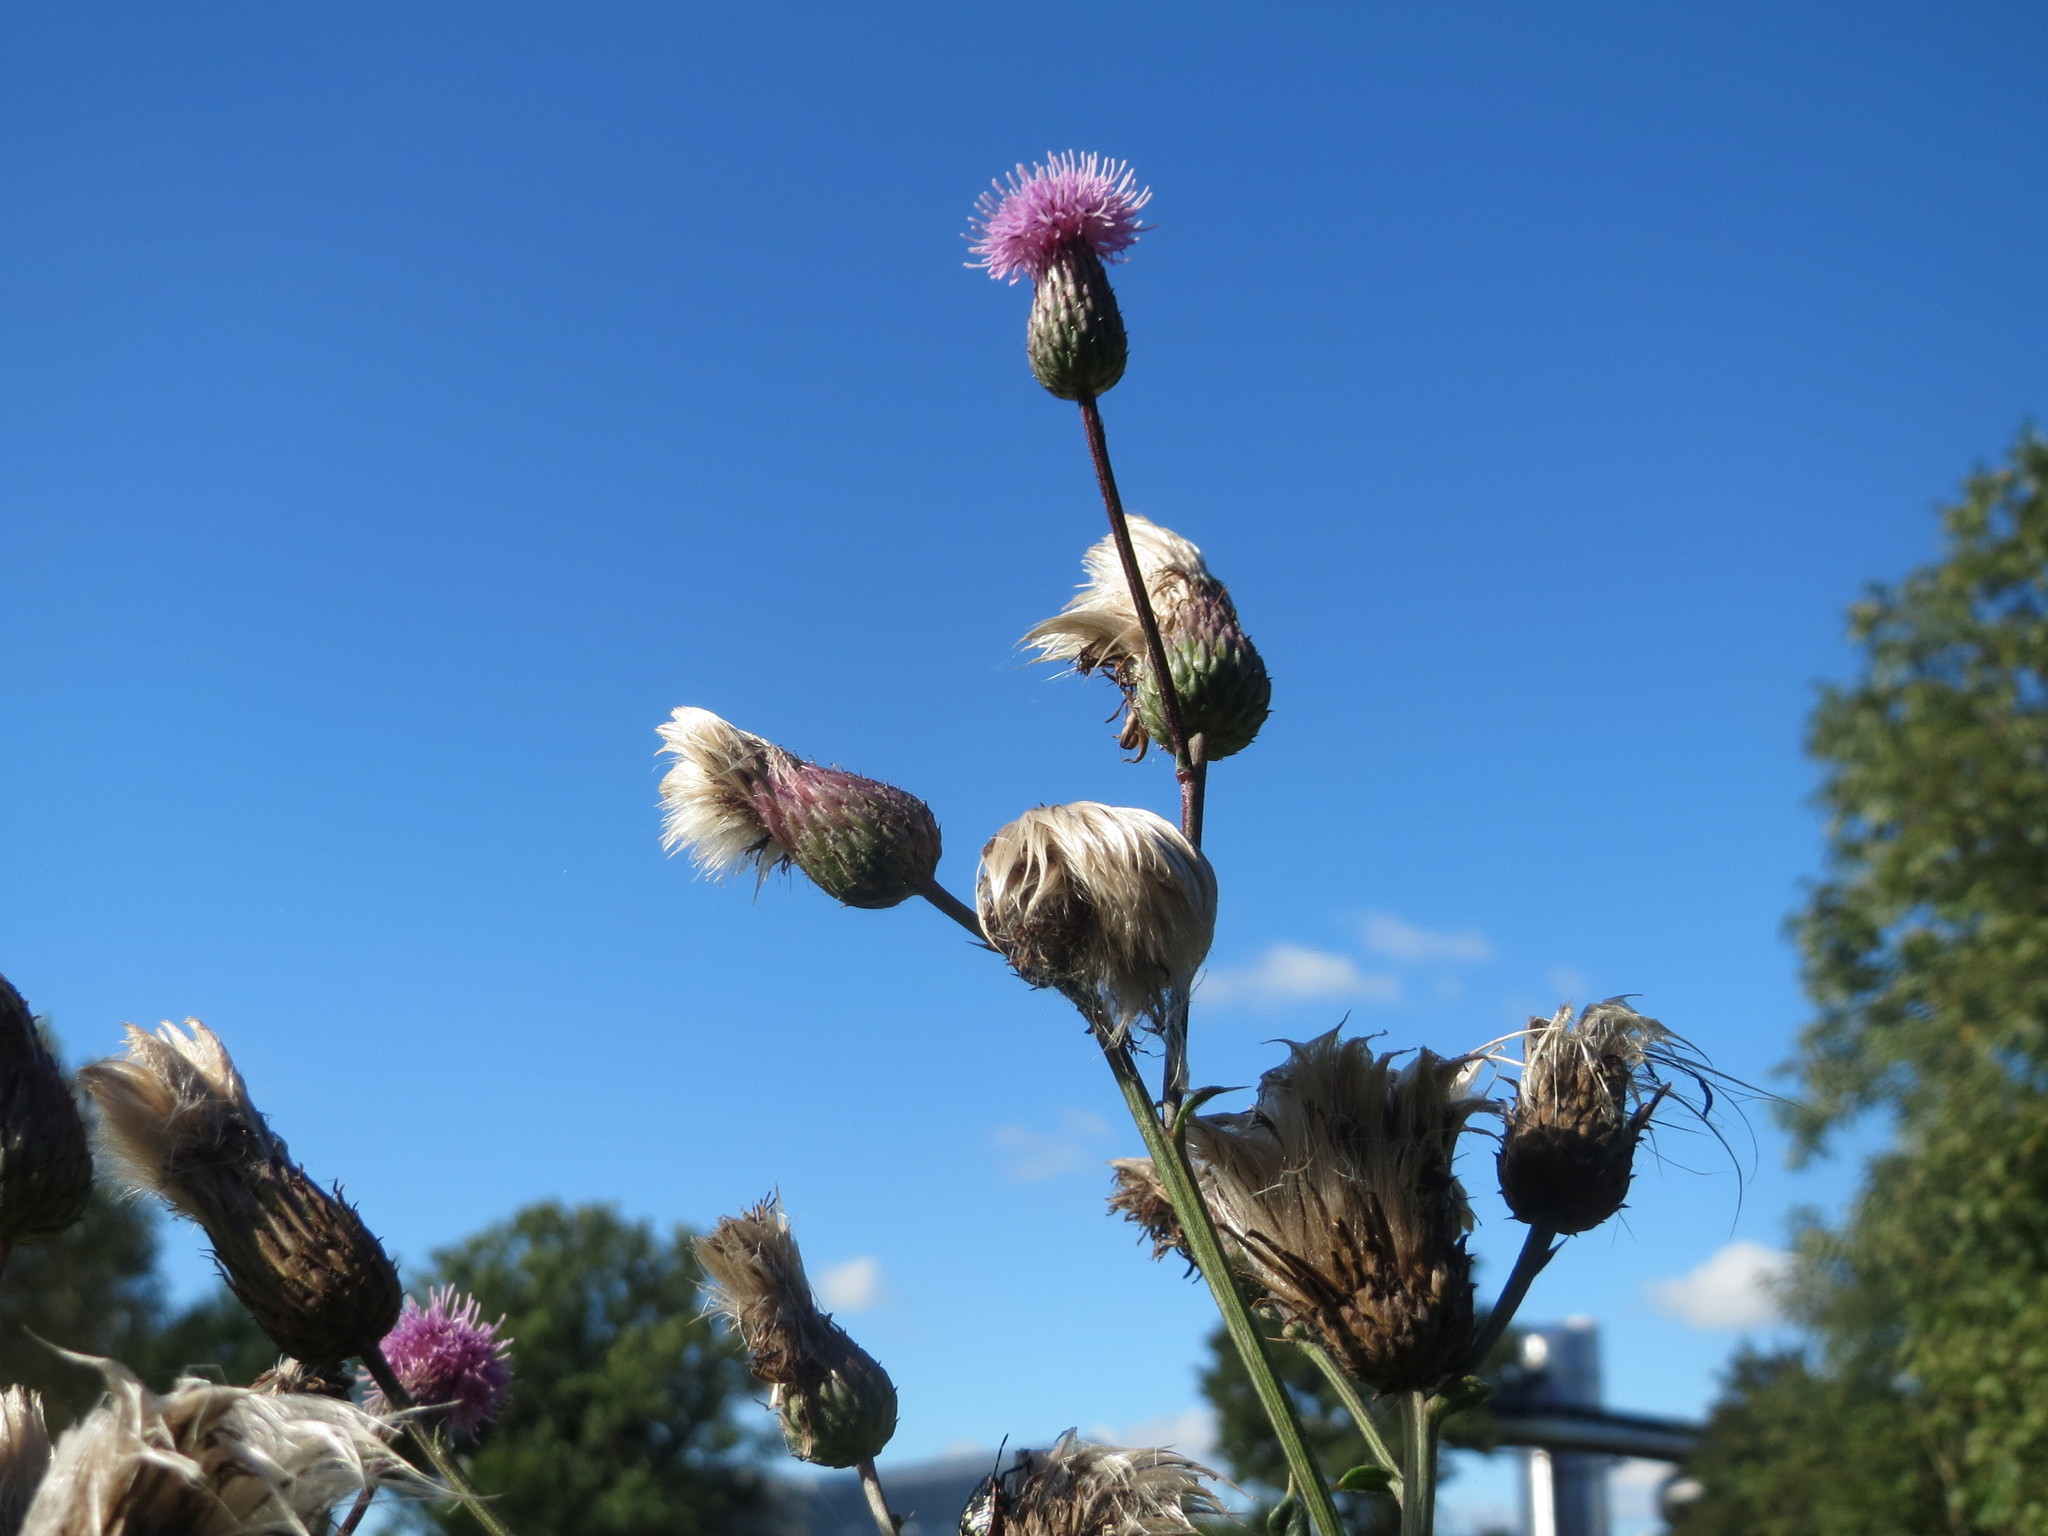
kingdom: Plantae
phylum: Tracheophyta
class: Magnoliopsida
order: Asterales
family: Asteraceae
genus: Cirsium
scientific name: Cirsium arvense
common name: Creeping thistle
